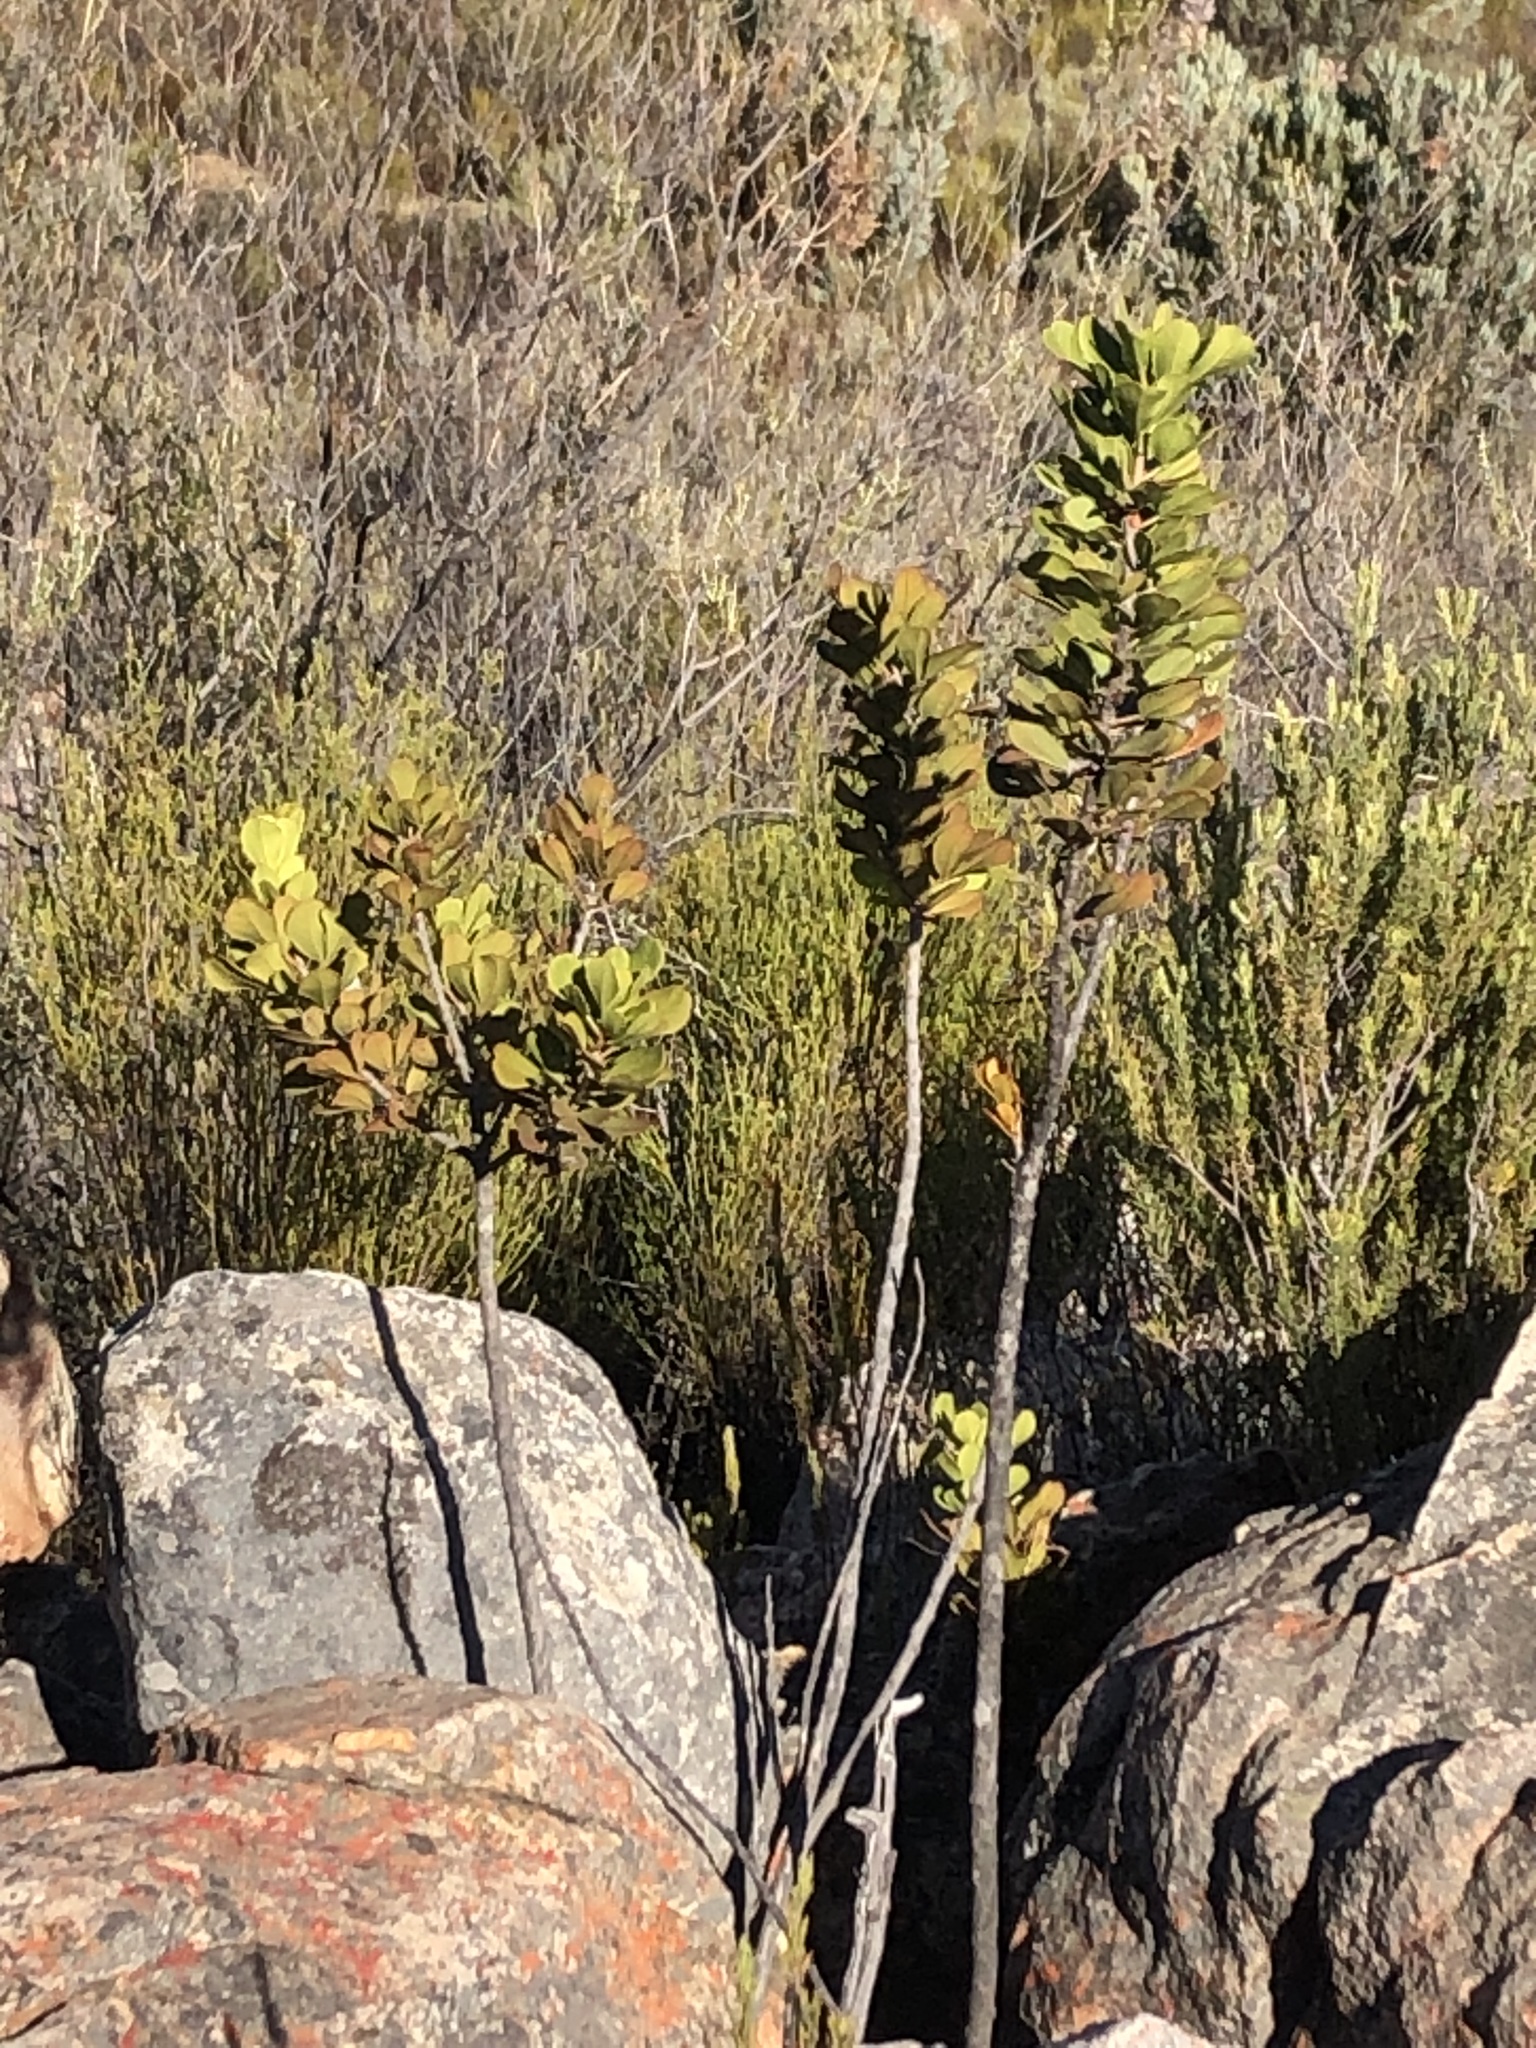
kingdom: Plantae
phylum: Tracheophyta
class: Magnoliopsida
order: Sapindales
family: Anacardiaceae
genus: Searsia
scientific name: Searsia scytophylla
